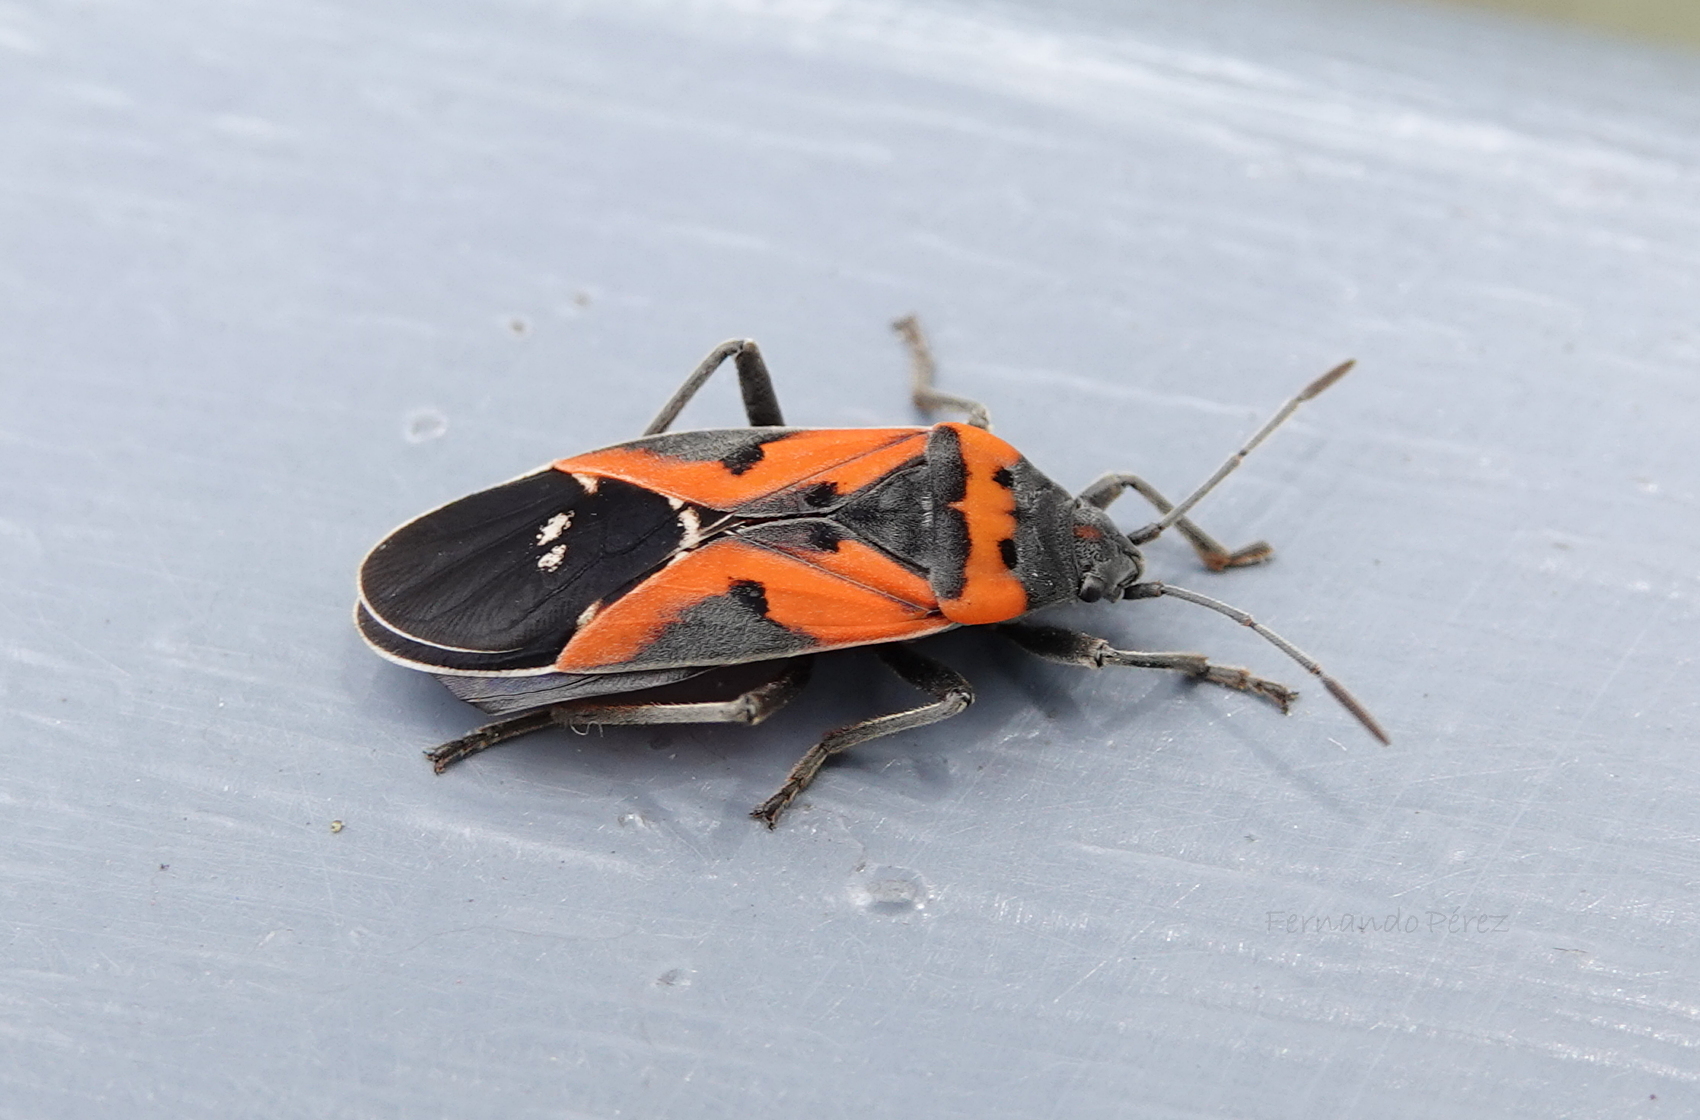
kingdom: Animalia
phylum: Arthropoda
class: Insecta
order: Hemiptera
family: Lygaeidae
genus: Lygaeus
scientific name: Lygaeus reclivatus
